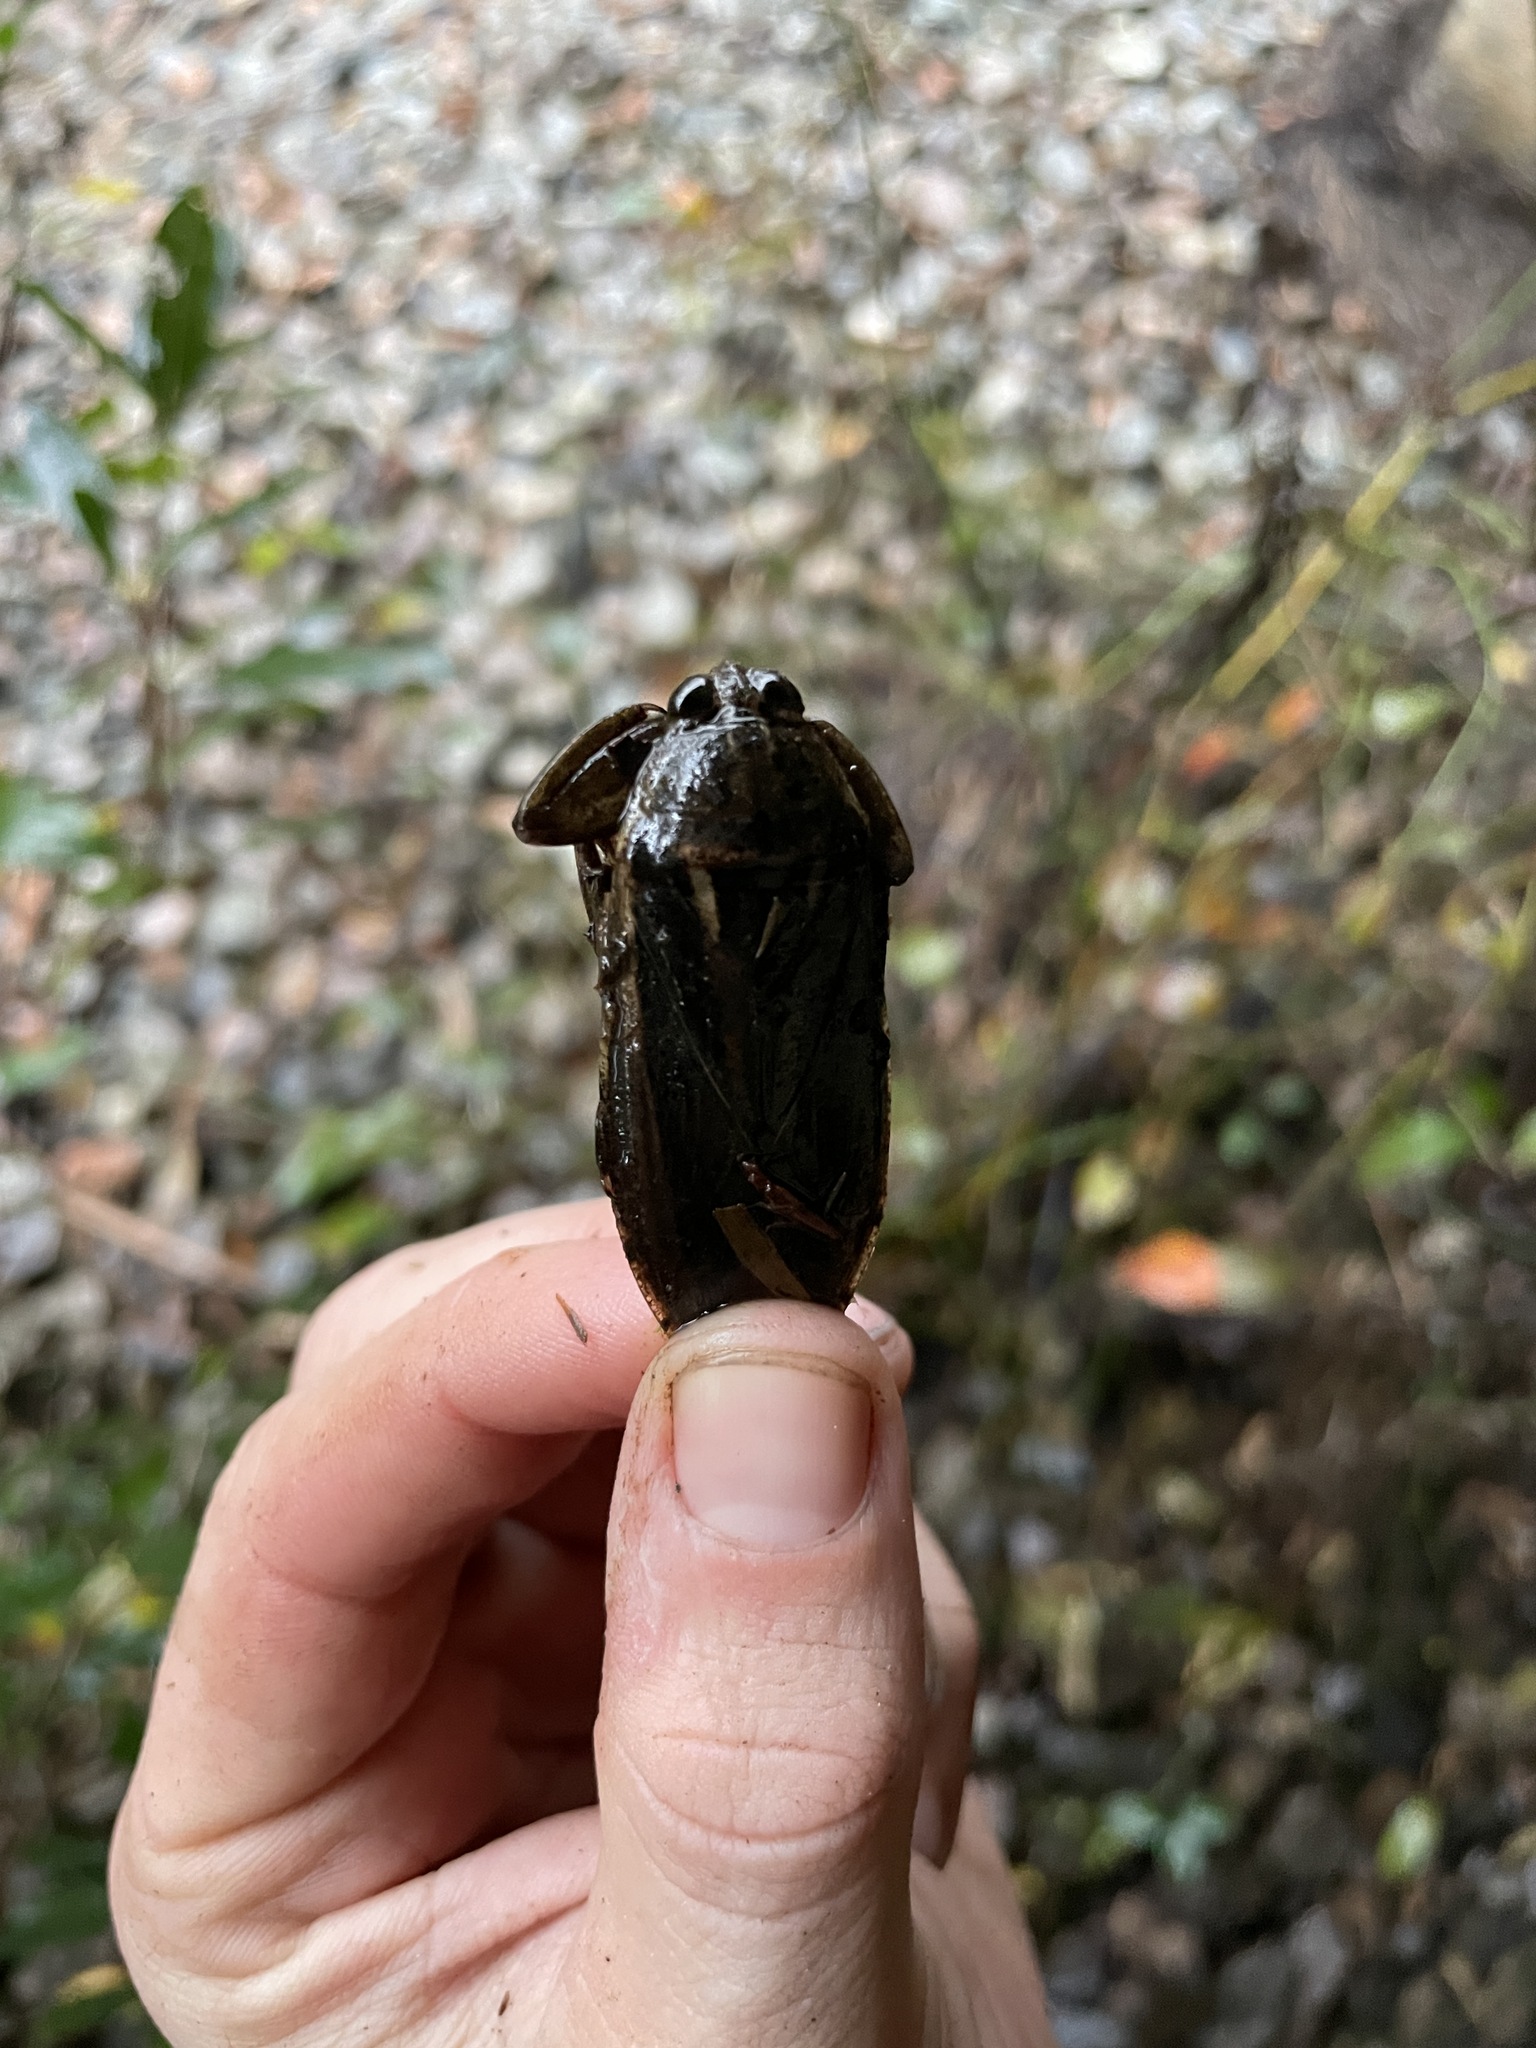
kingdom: Animalia
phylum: Arthropoda
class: Insecta
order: Hemiptera
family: Belostomatidae
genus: Lethocerus
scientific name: Lethocerus uhleri
